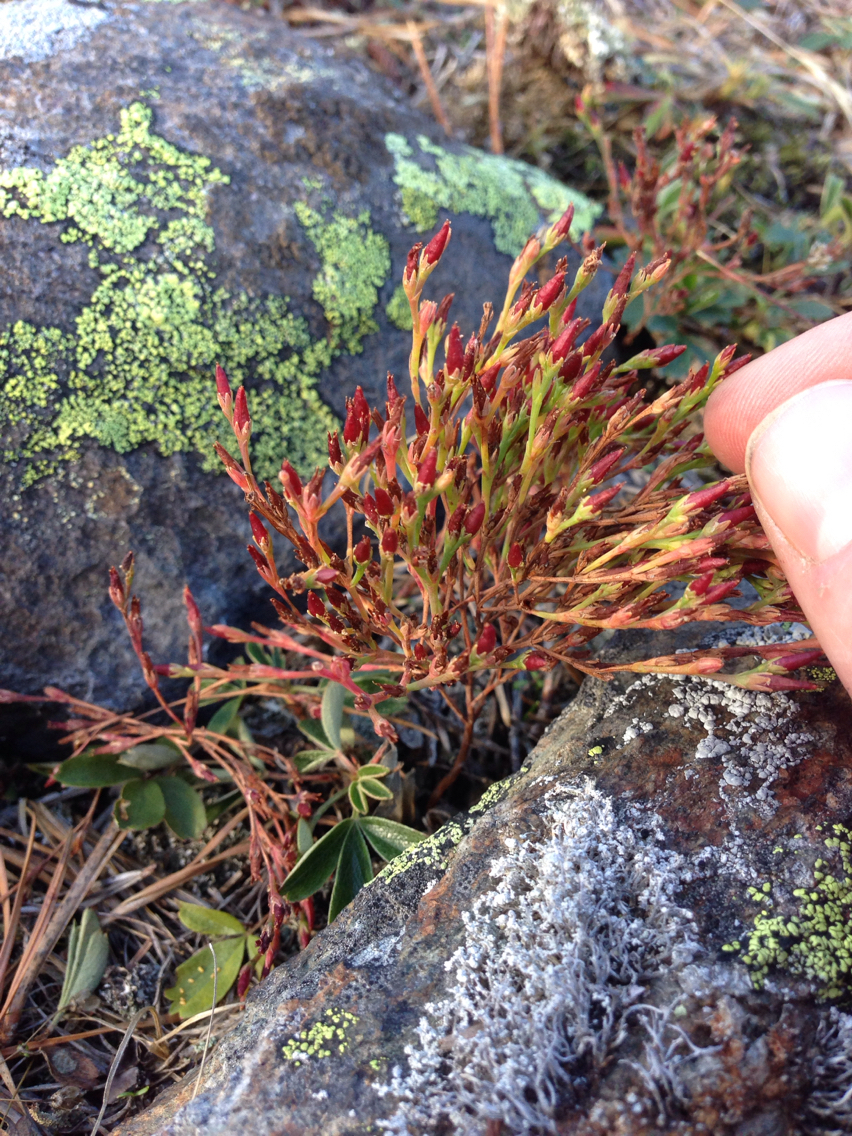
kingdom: Plantae
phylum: Tracheophyta
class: Magnoliopsida
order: Malpighiales
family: Hypericaceae
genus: Hypericum
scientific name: Hypericum gentianoides
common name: Gentian-leaved st. john's-wort
